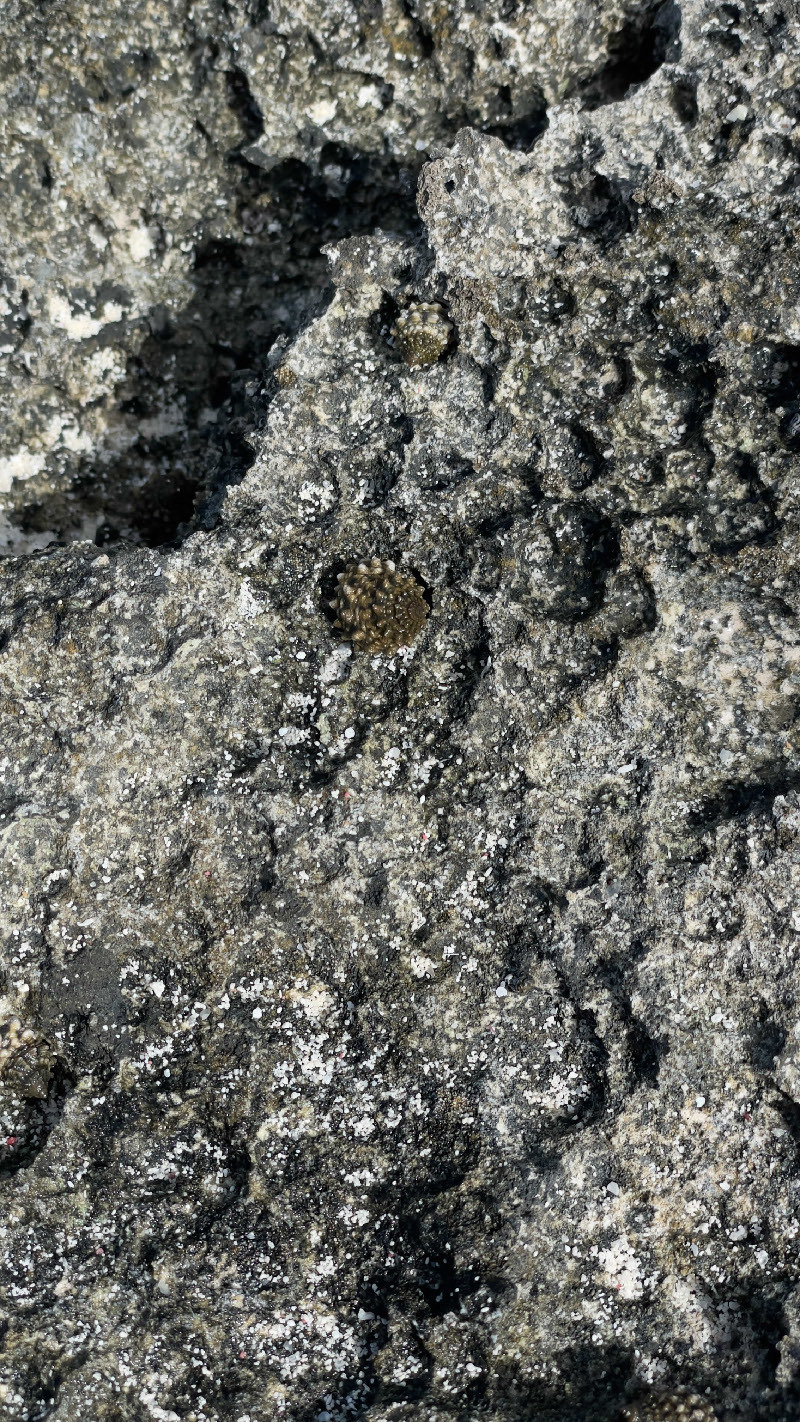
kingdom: Animalia
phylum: Mollusca
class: Gastropoda
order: Littorinimorpha
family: Littorinidae
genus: Echinolittorina
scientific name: Echinolittorina tuberculata
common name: Common periwinkle
